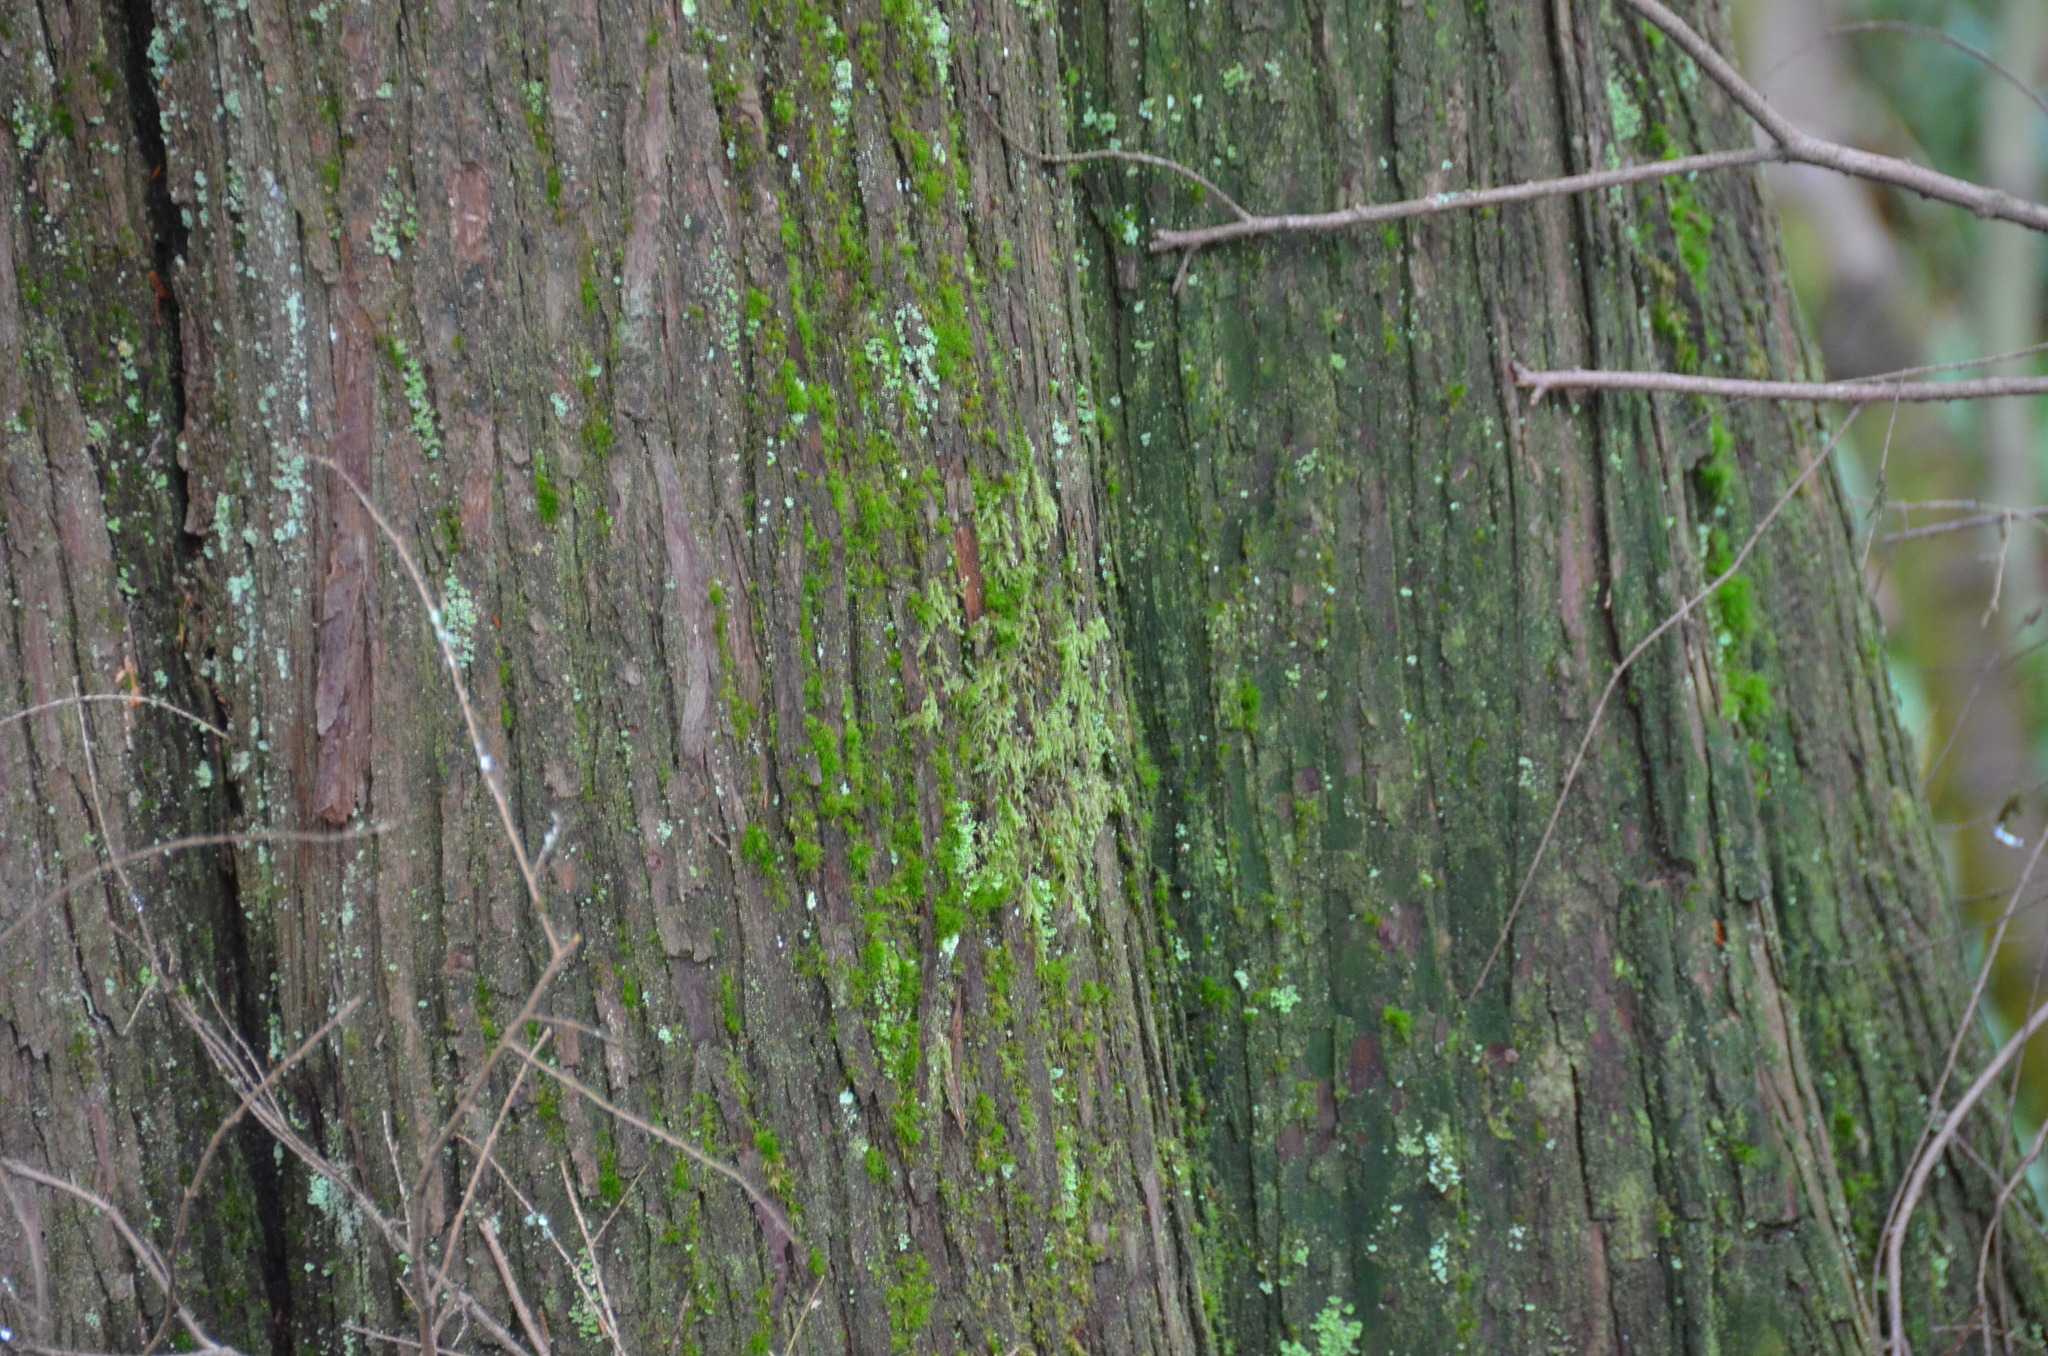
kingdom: Plantae
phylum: Tracheophyta
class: Pinopsida
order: Pinales
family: Cupressaceae
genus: Thuja
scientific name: Thuja plicata
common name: Western red-cedar
